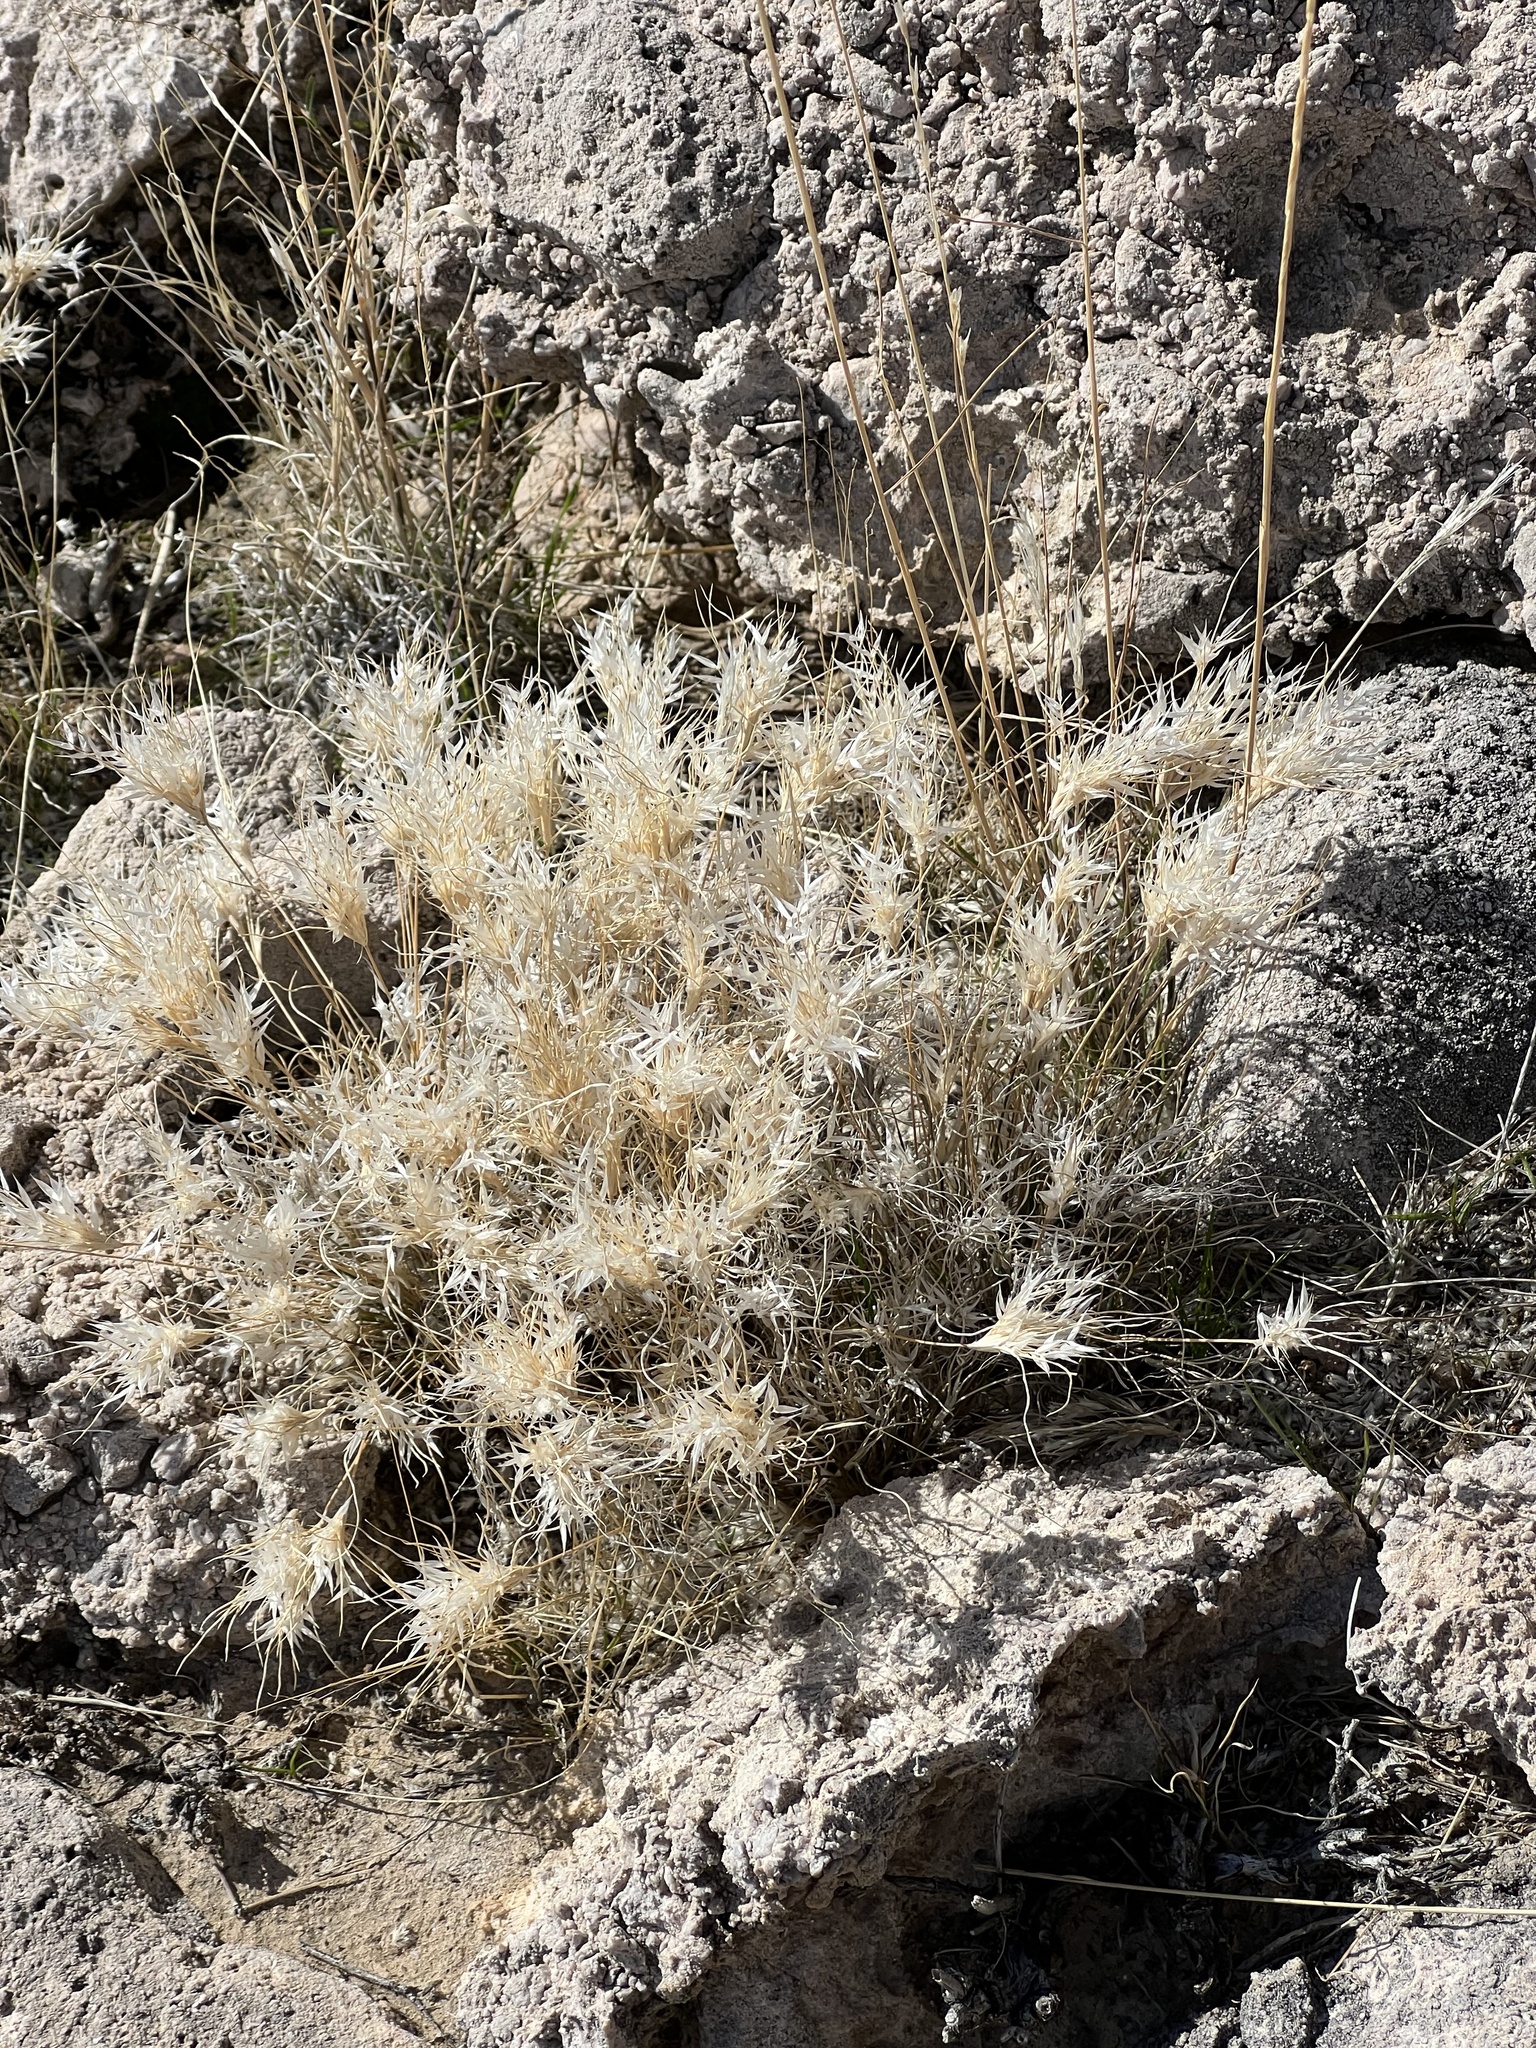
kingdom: Plantae
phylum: Tracheophyta
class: Liliopsida
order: Poales
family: Poaceae
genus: Dasyochloa
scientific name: Dasyochloa pulchella
